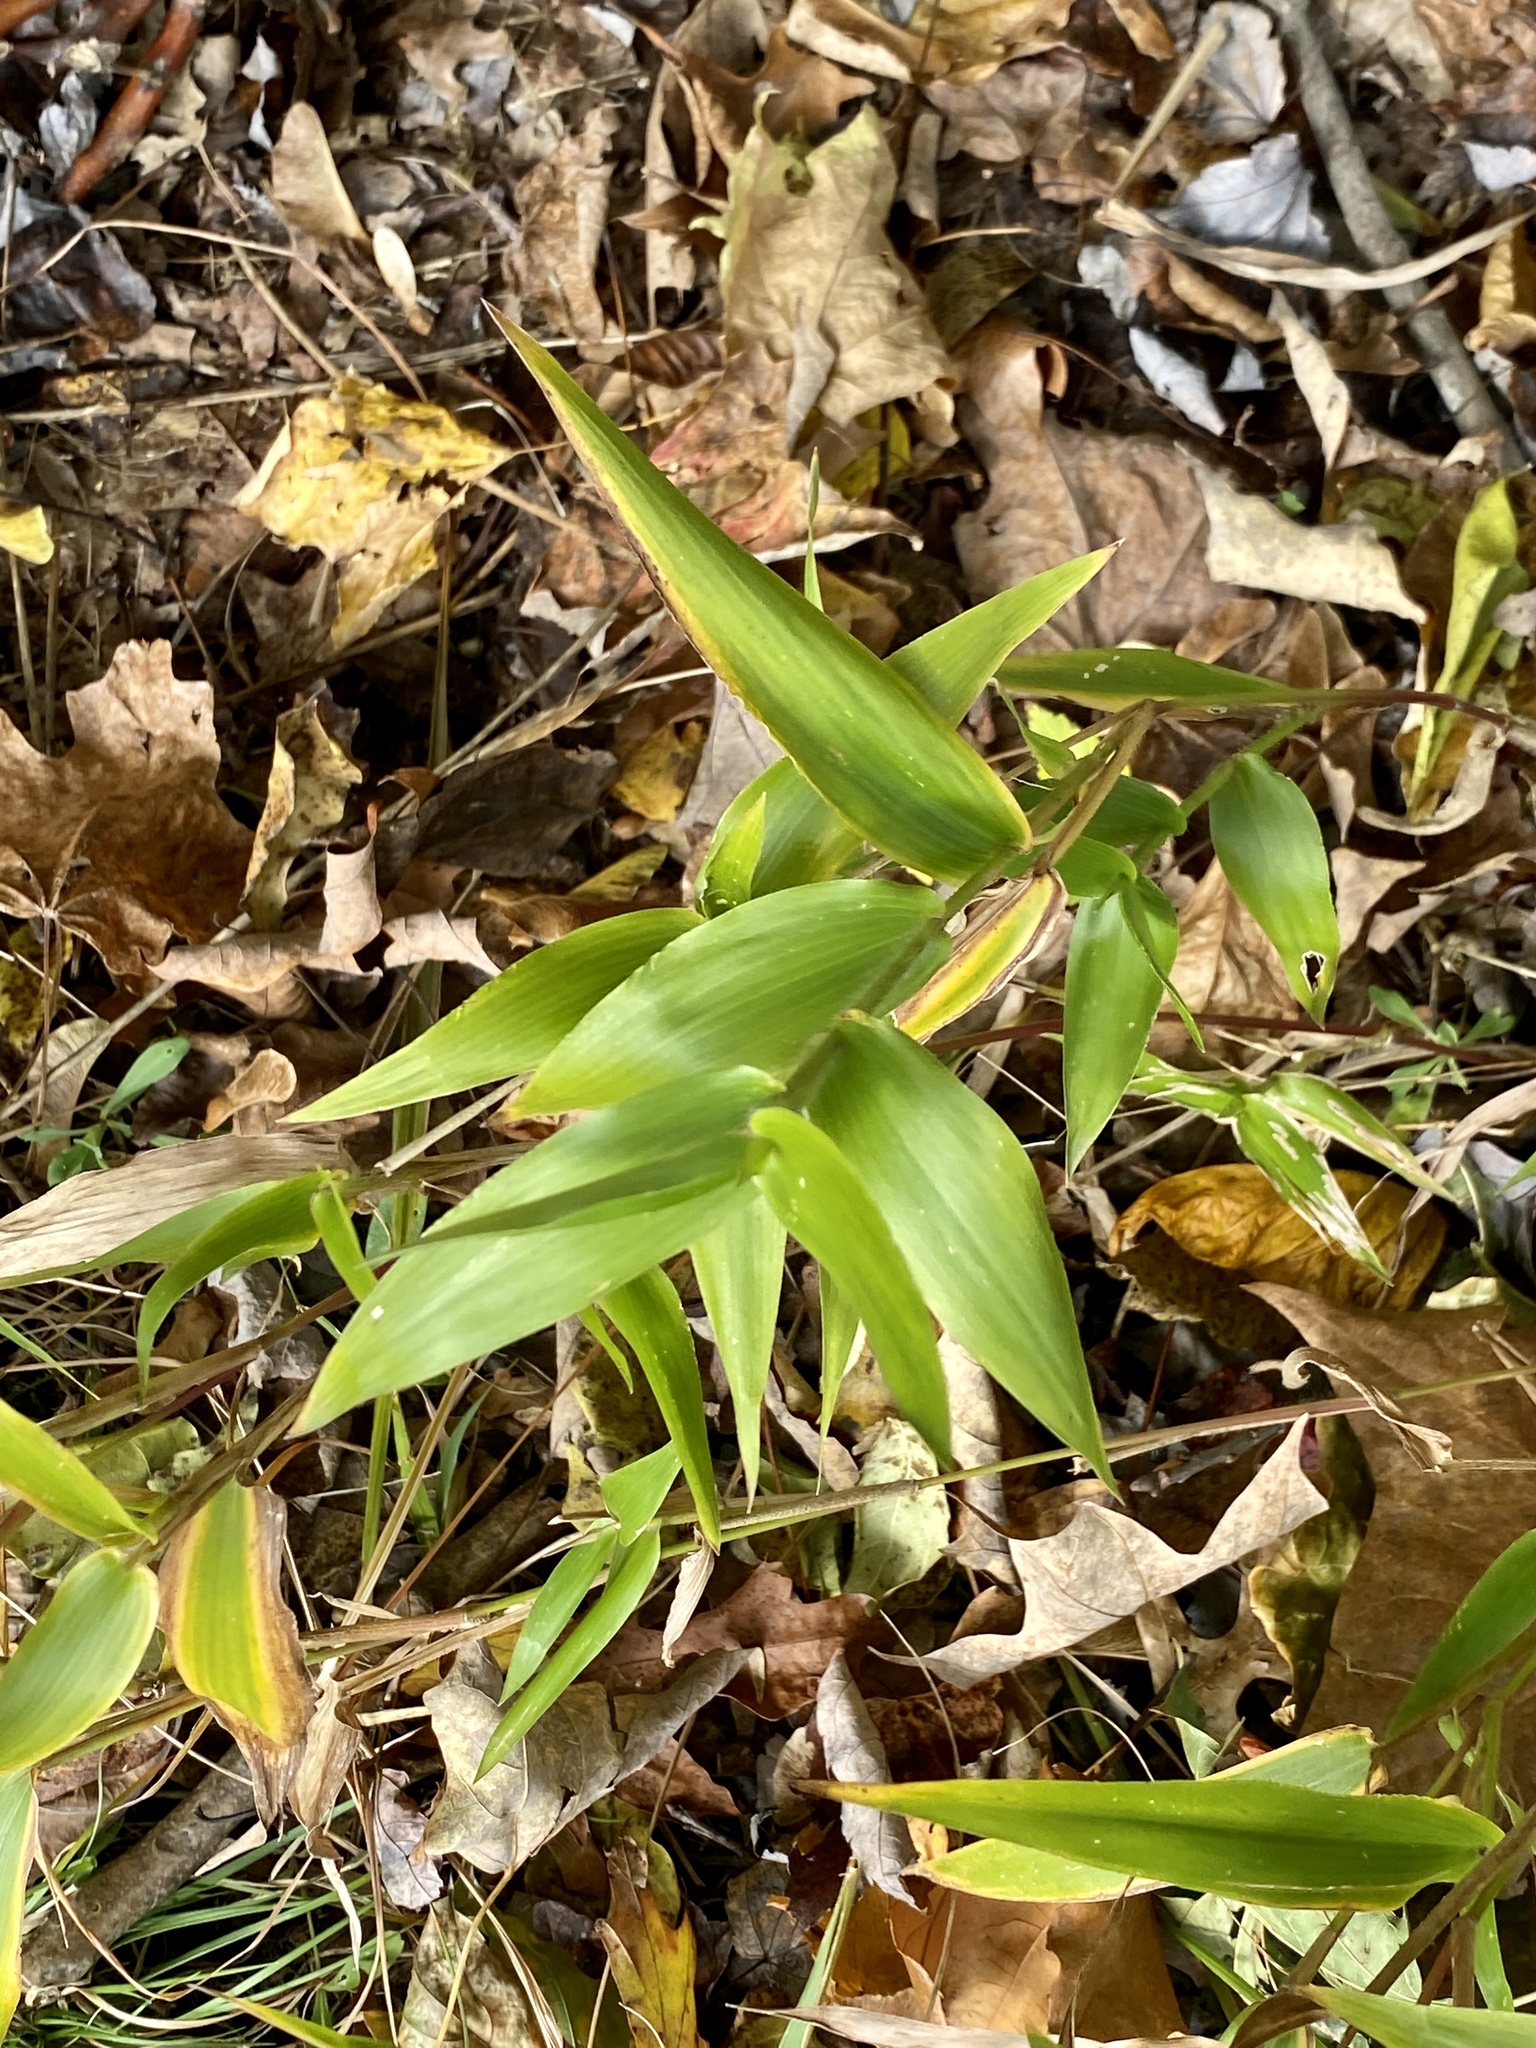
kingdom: Plantae
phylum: Tracheophyta
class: Liliopsida
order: Poales
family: Poaceae
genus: Dichanthelium
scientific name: Dichanthelium clandestinum
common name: Deer-tongue grass
